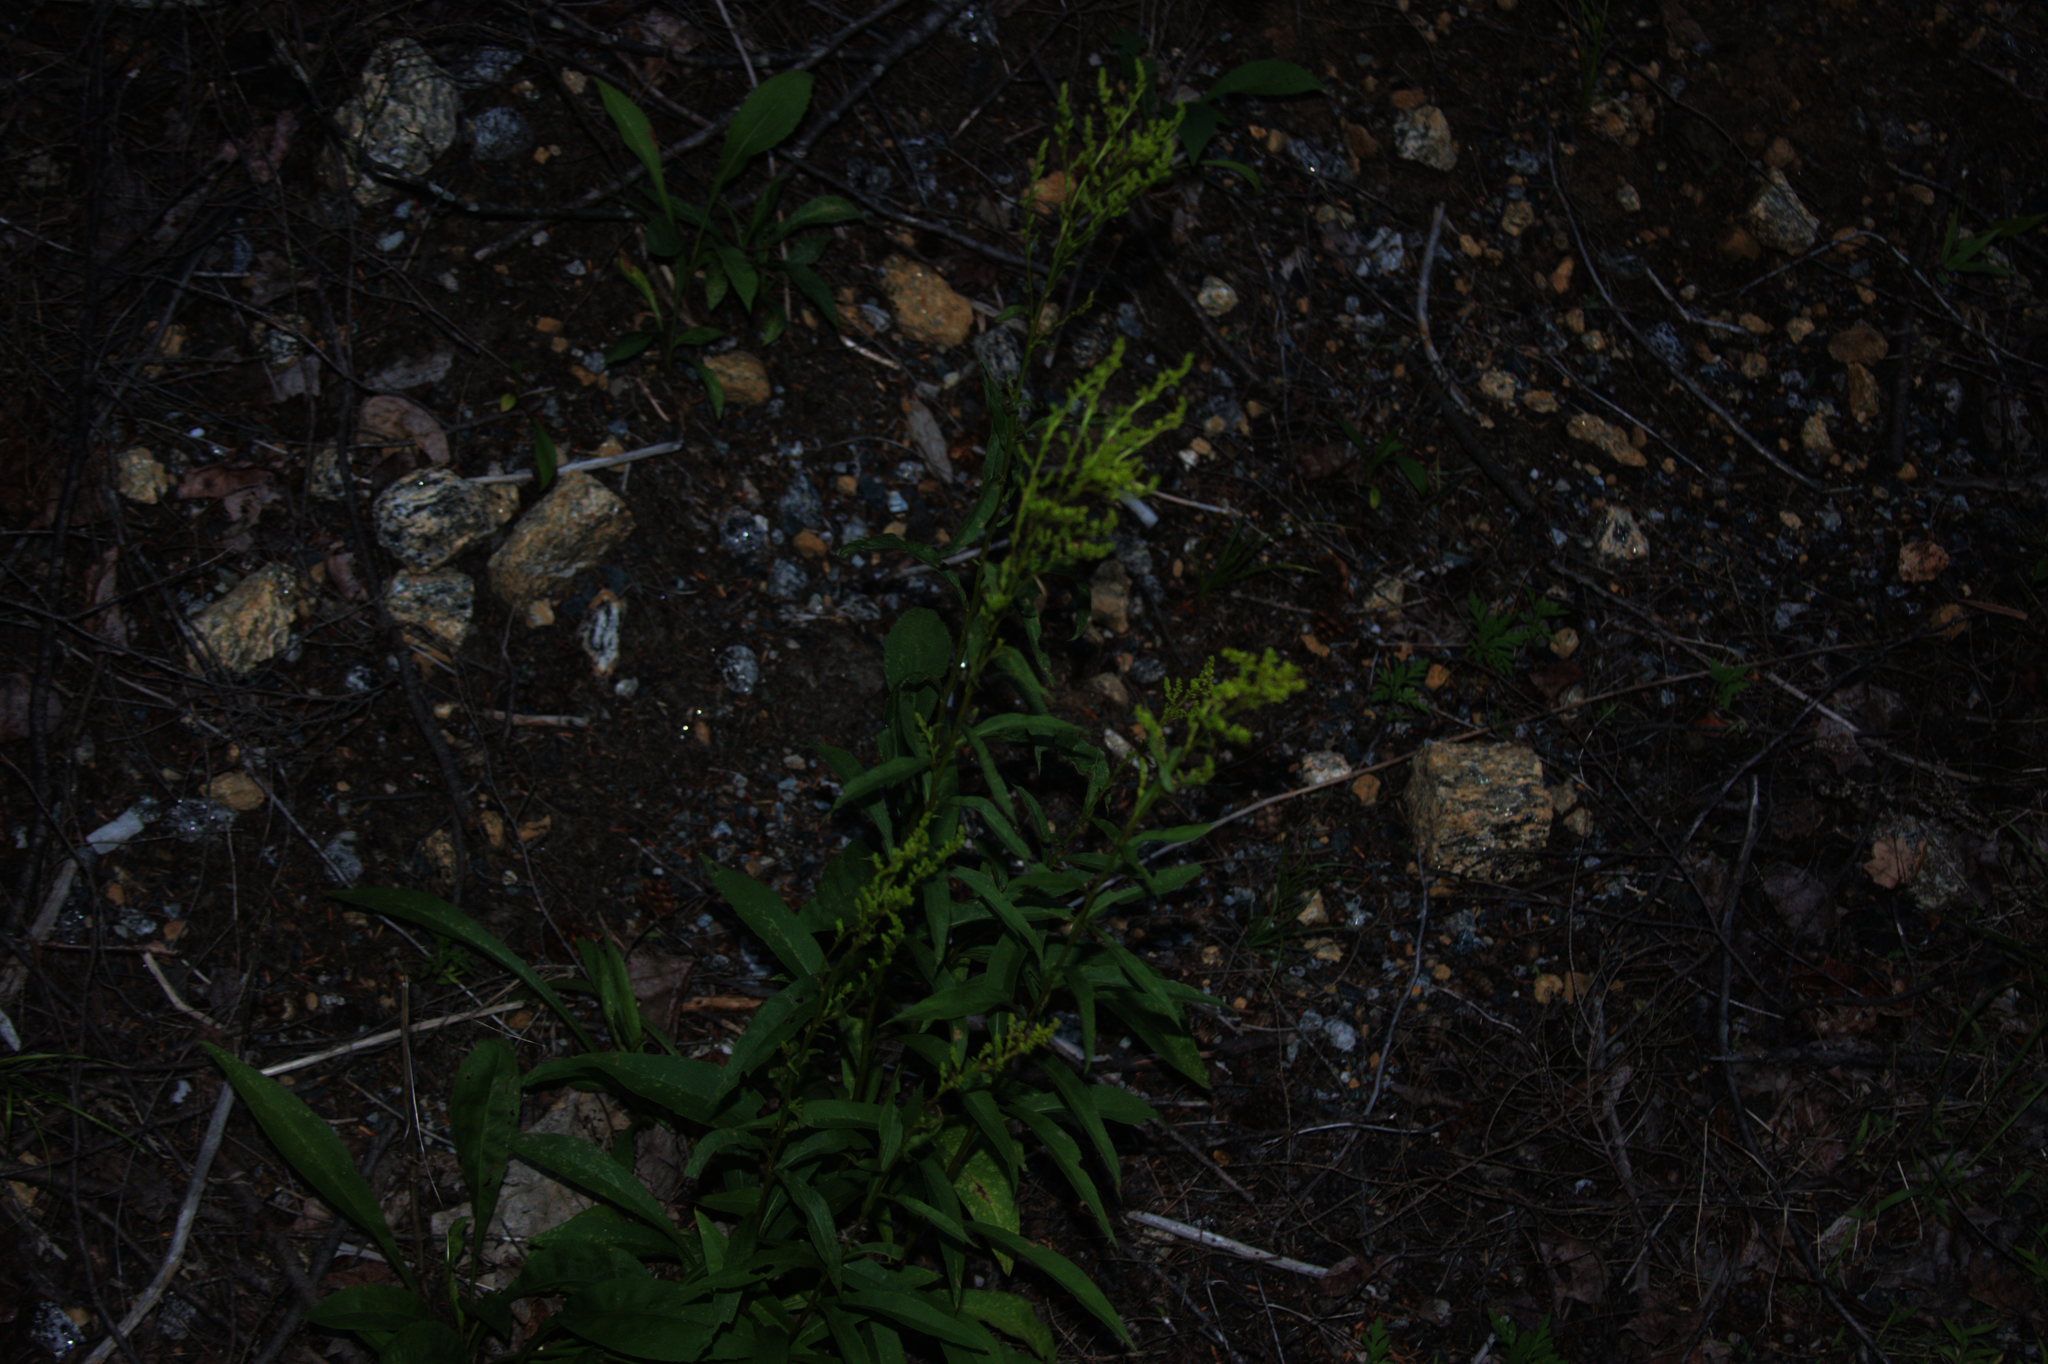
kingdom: Plantae
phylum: Tracheophyta
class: Magnoliopsida
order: Asterales
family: Asteraceae
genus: Solidago
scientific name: Solidago juncea
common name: Early goldenrod
